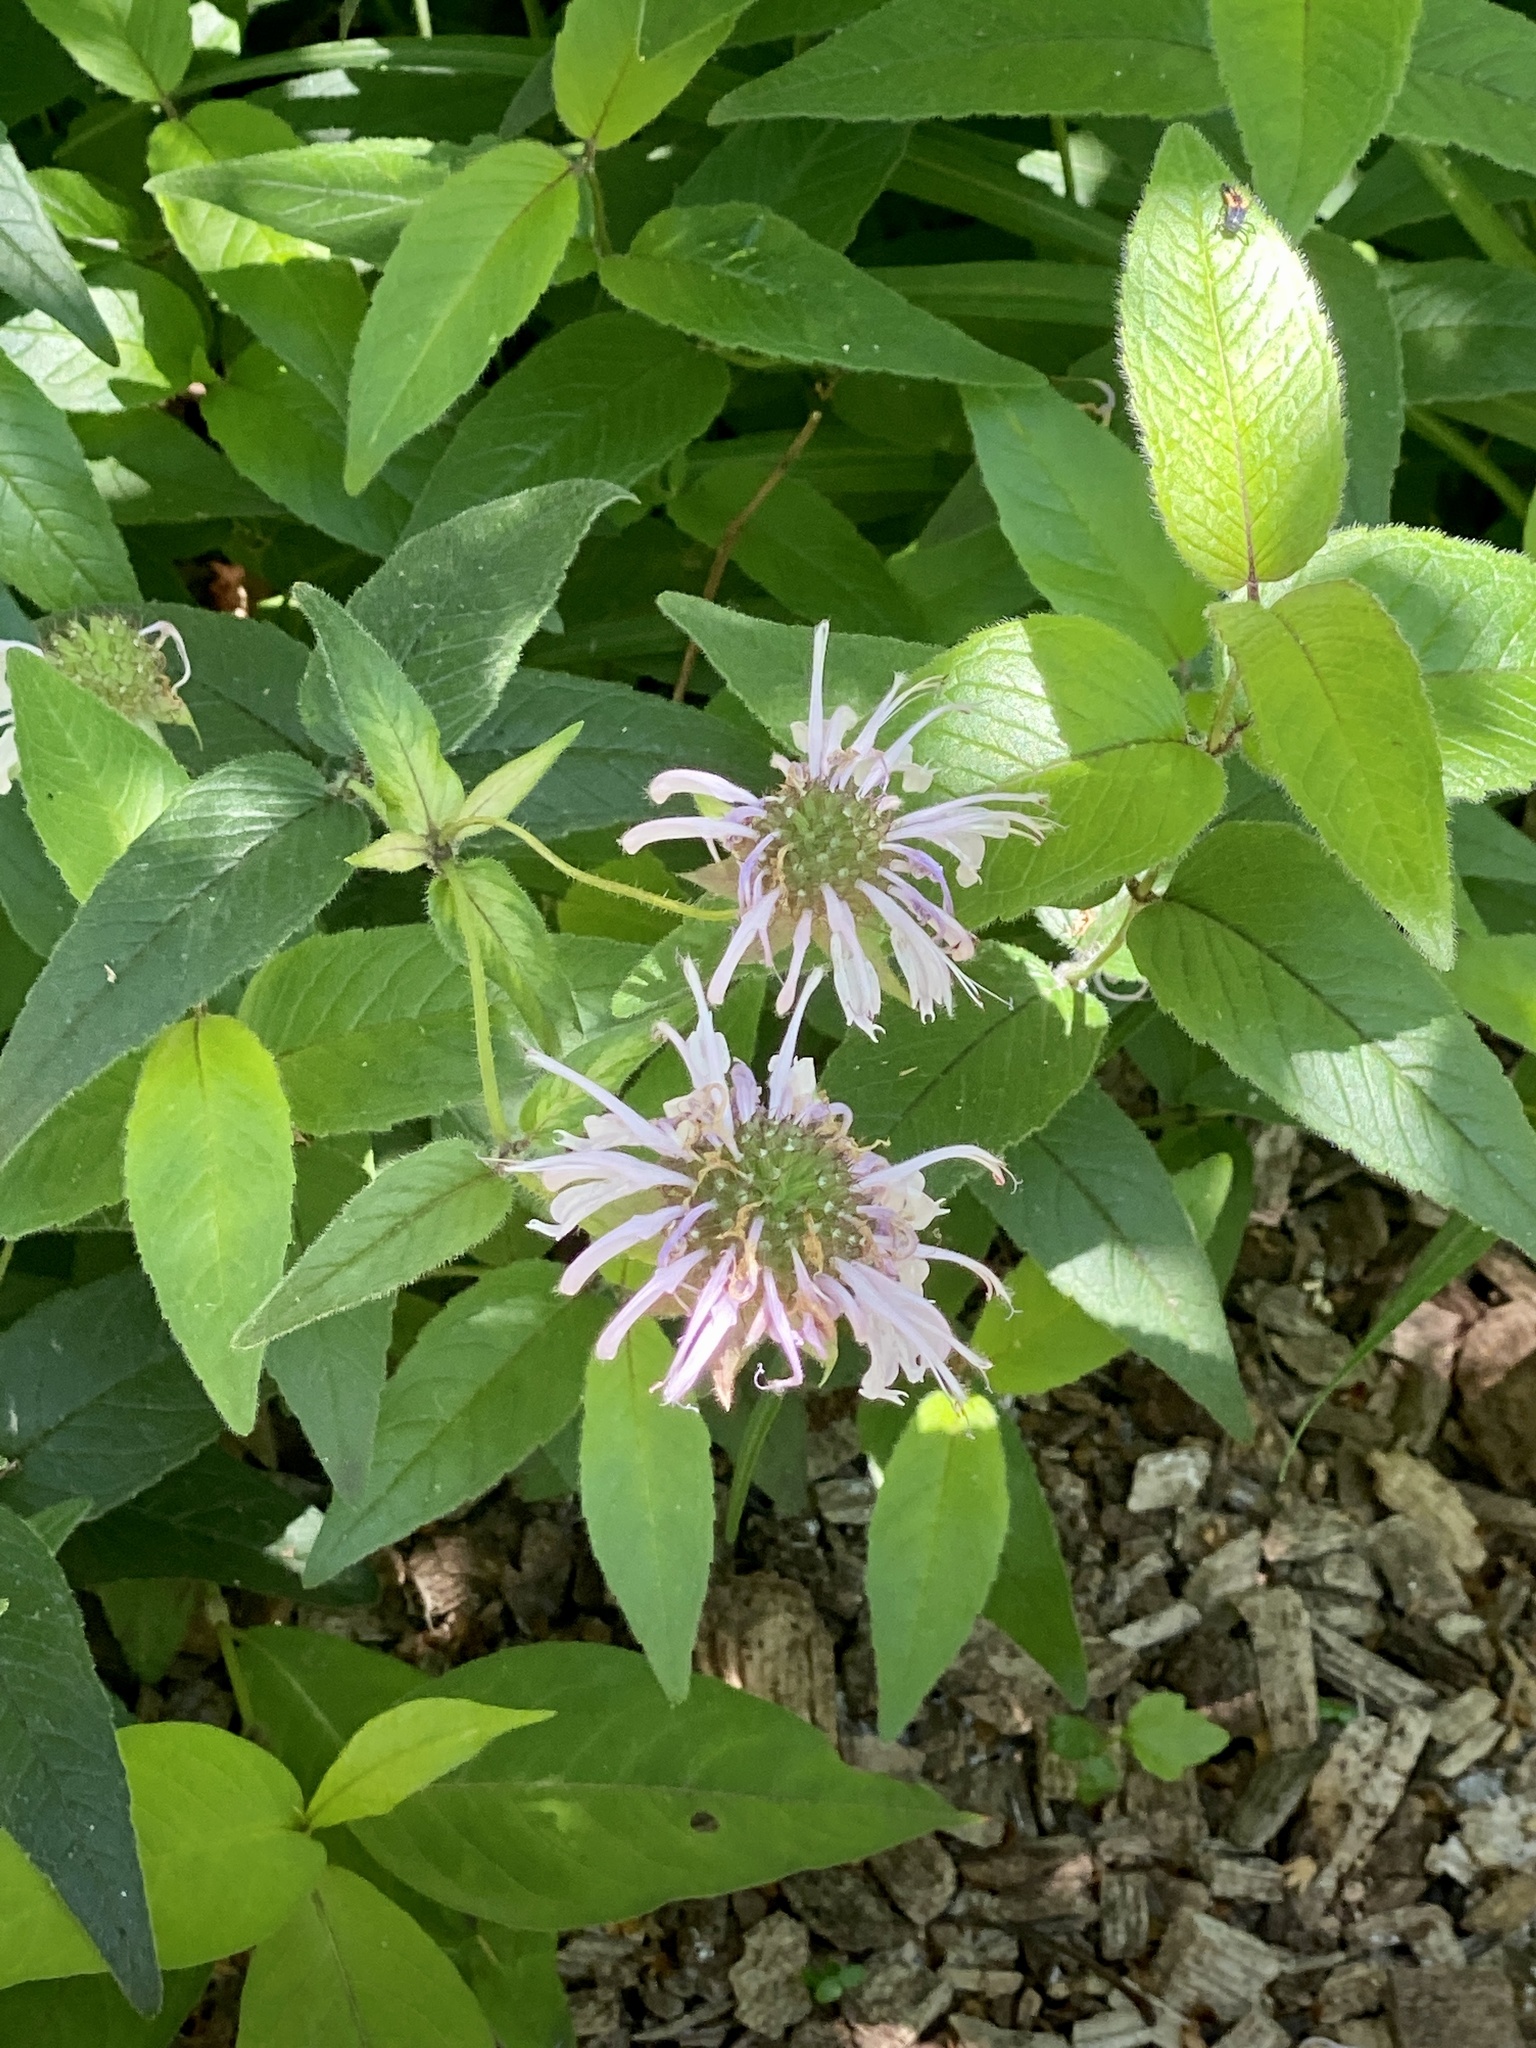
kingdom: Plantae
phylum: Tracheophyta
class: Magnoliopsida
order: Lamiales
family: Lamiaceae
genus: Monarda
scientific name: Monarda fistulosa
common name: Purple beebalm
